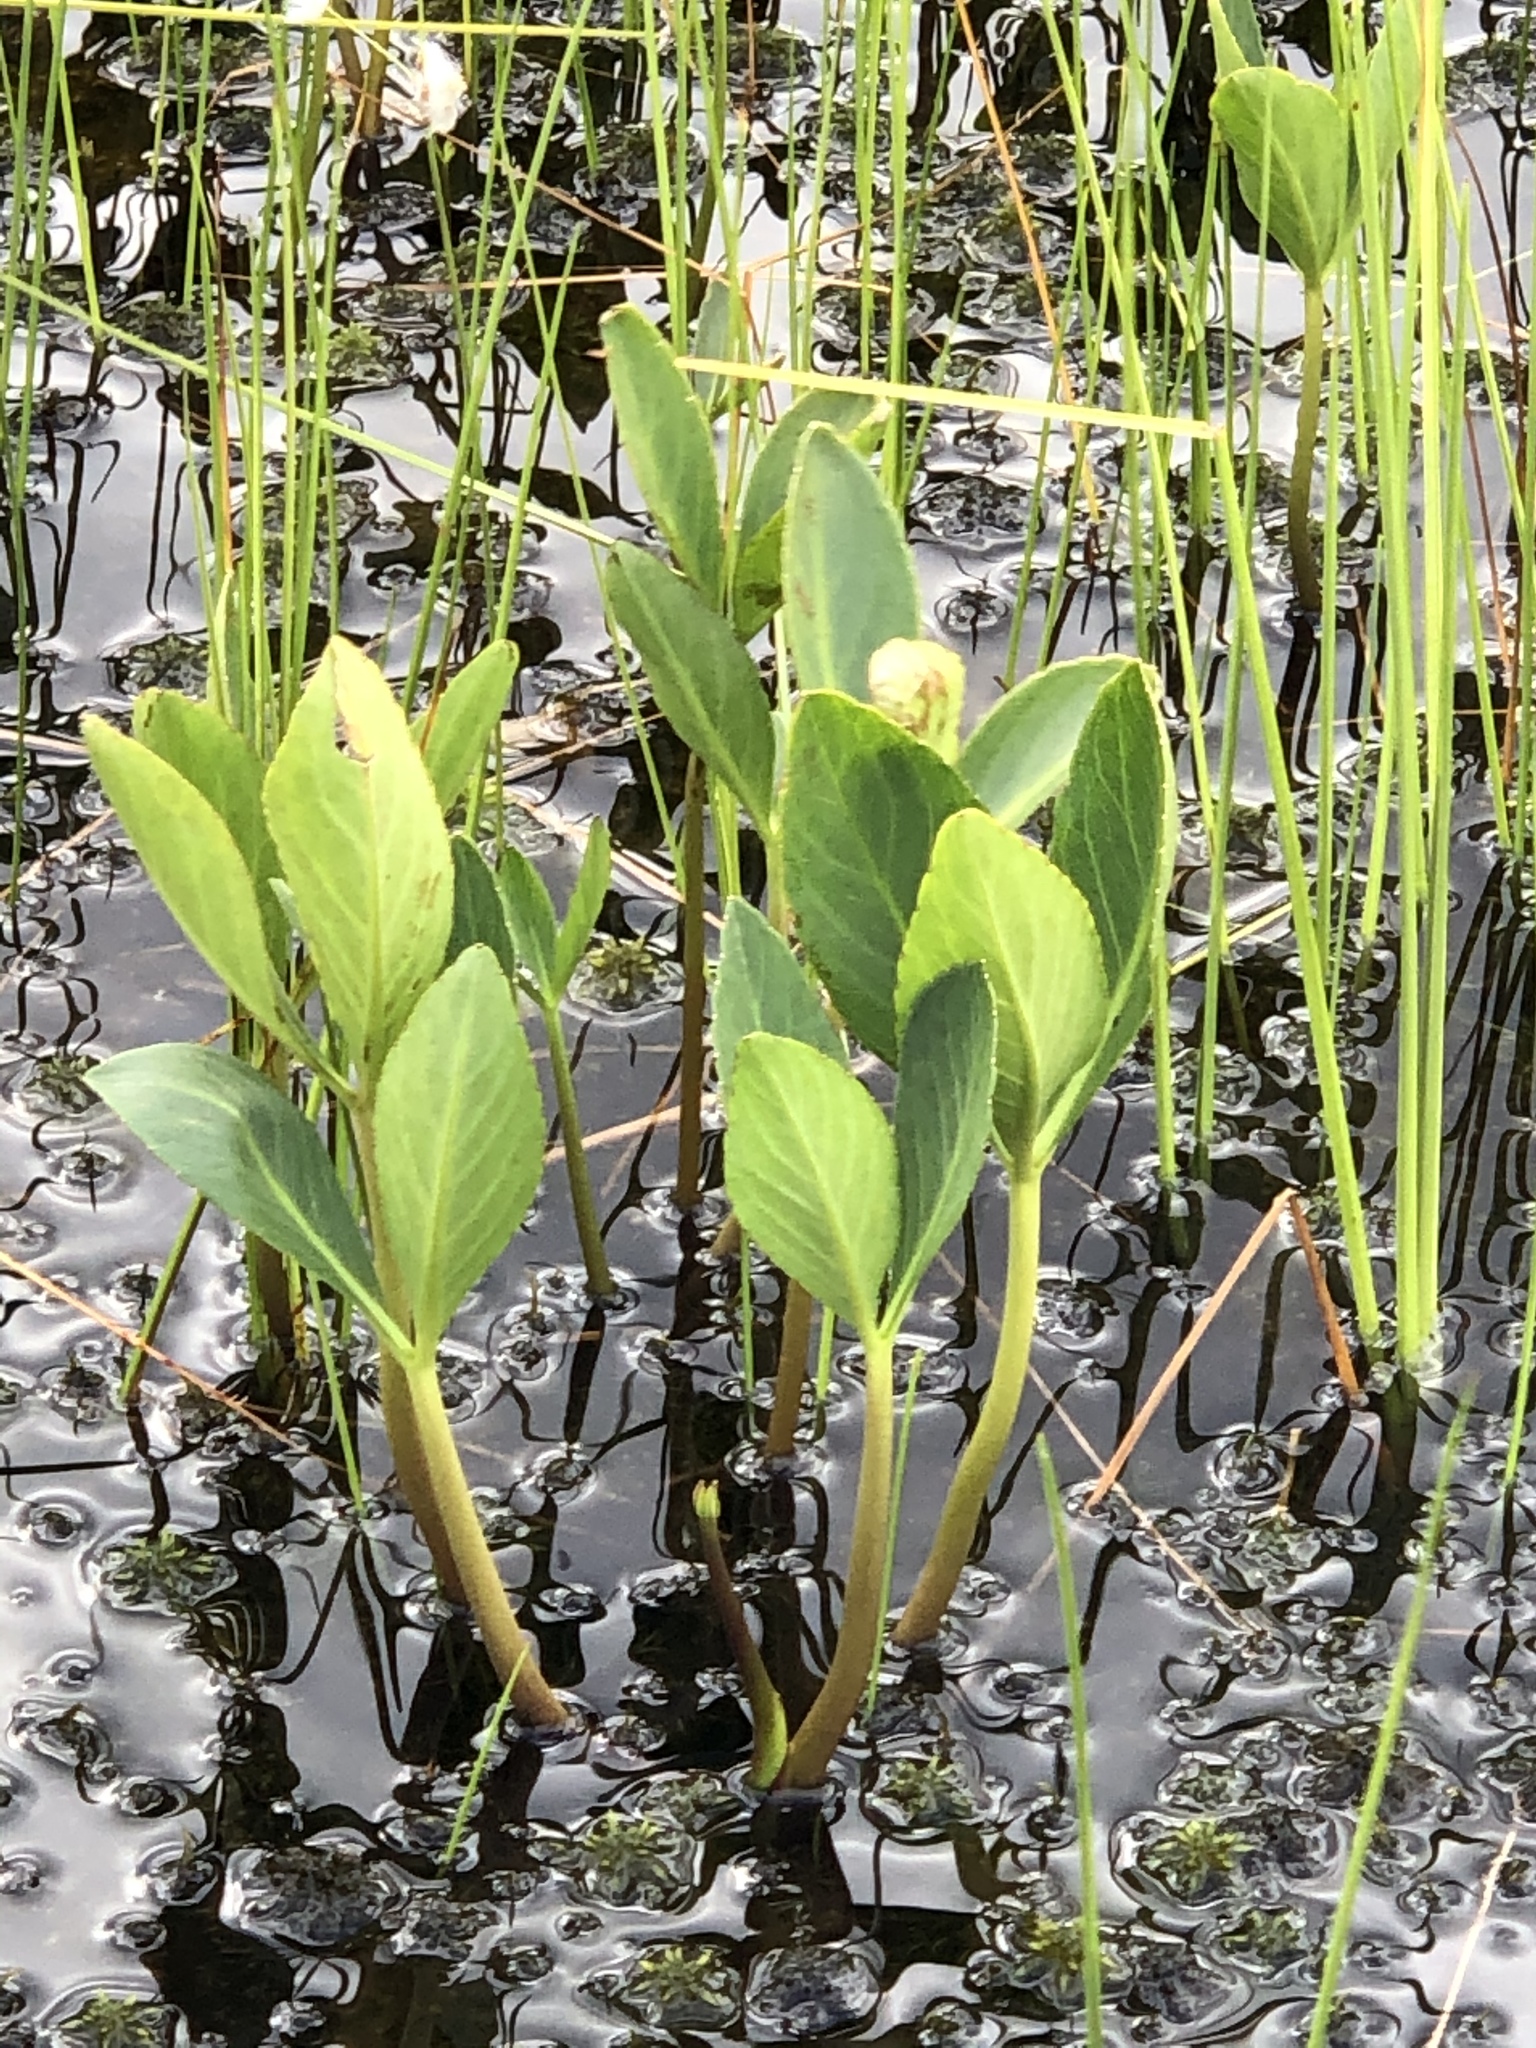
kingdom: Plantae
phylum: Tracheophyta
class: Magnoliopsida
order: Asterales
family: Menyanthaceae
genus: Menyanthes
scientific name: Menyanthes trifoliata
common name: Bogbean
